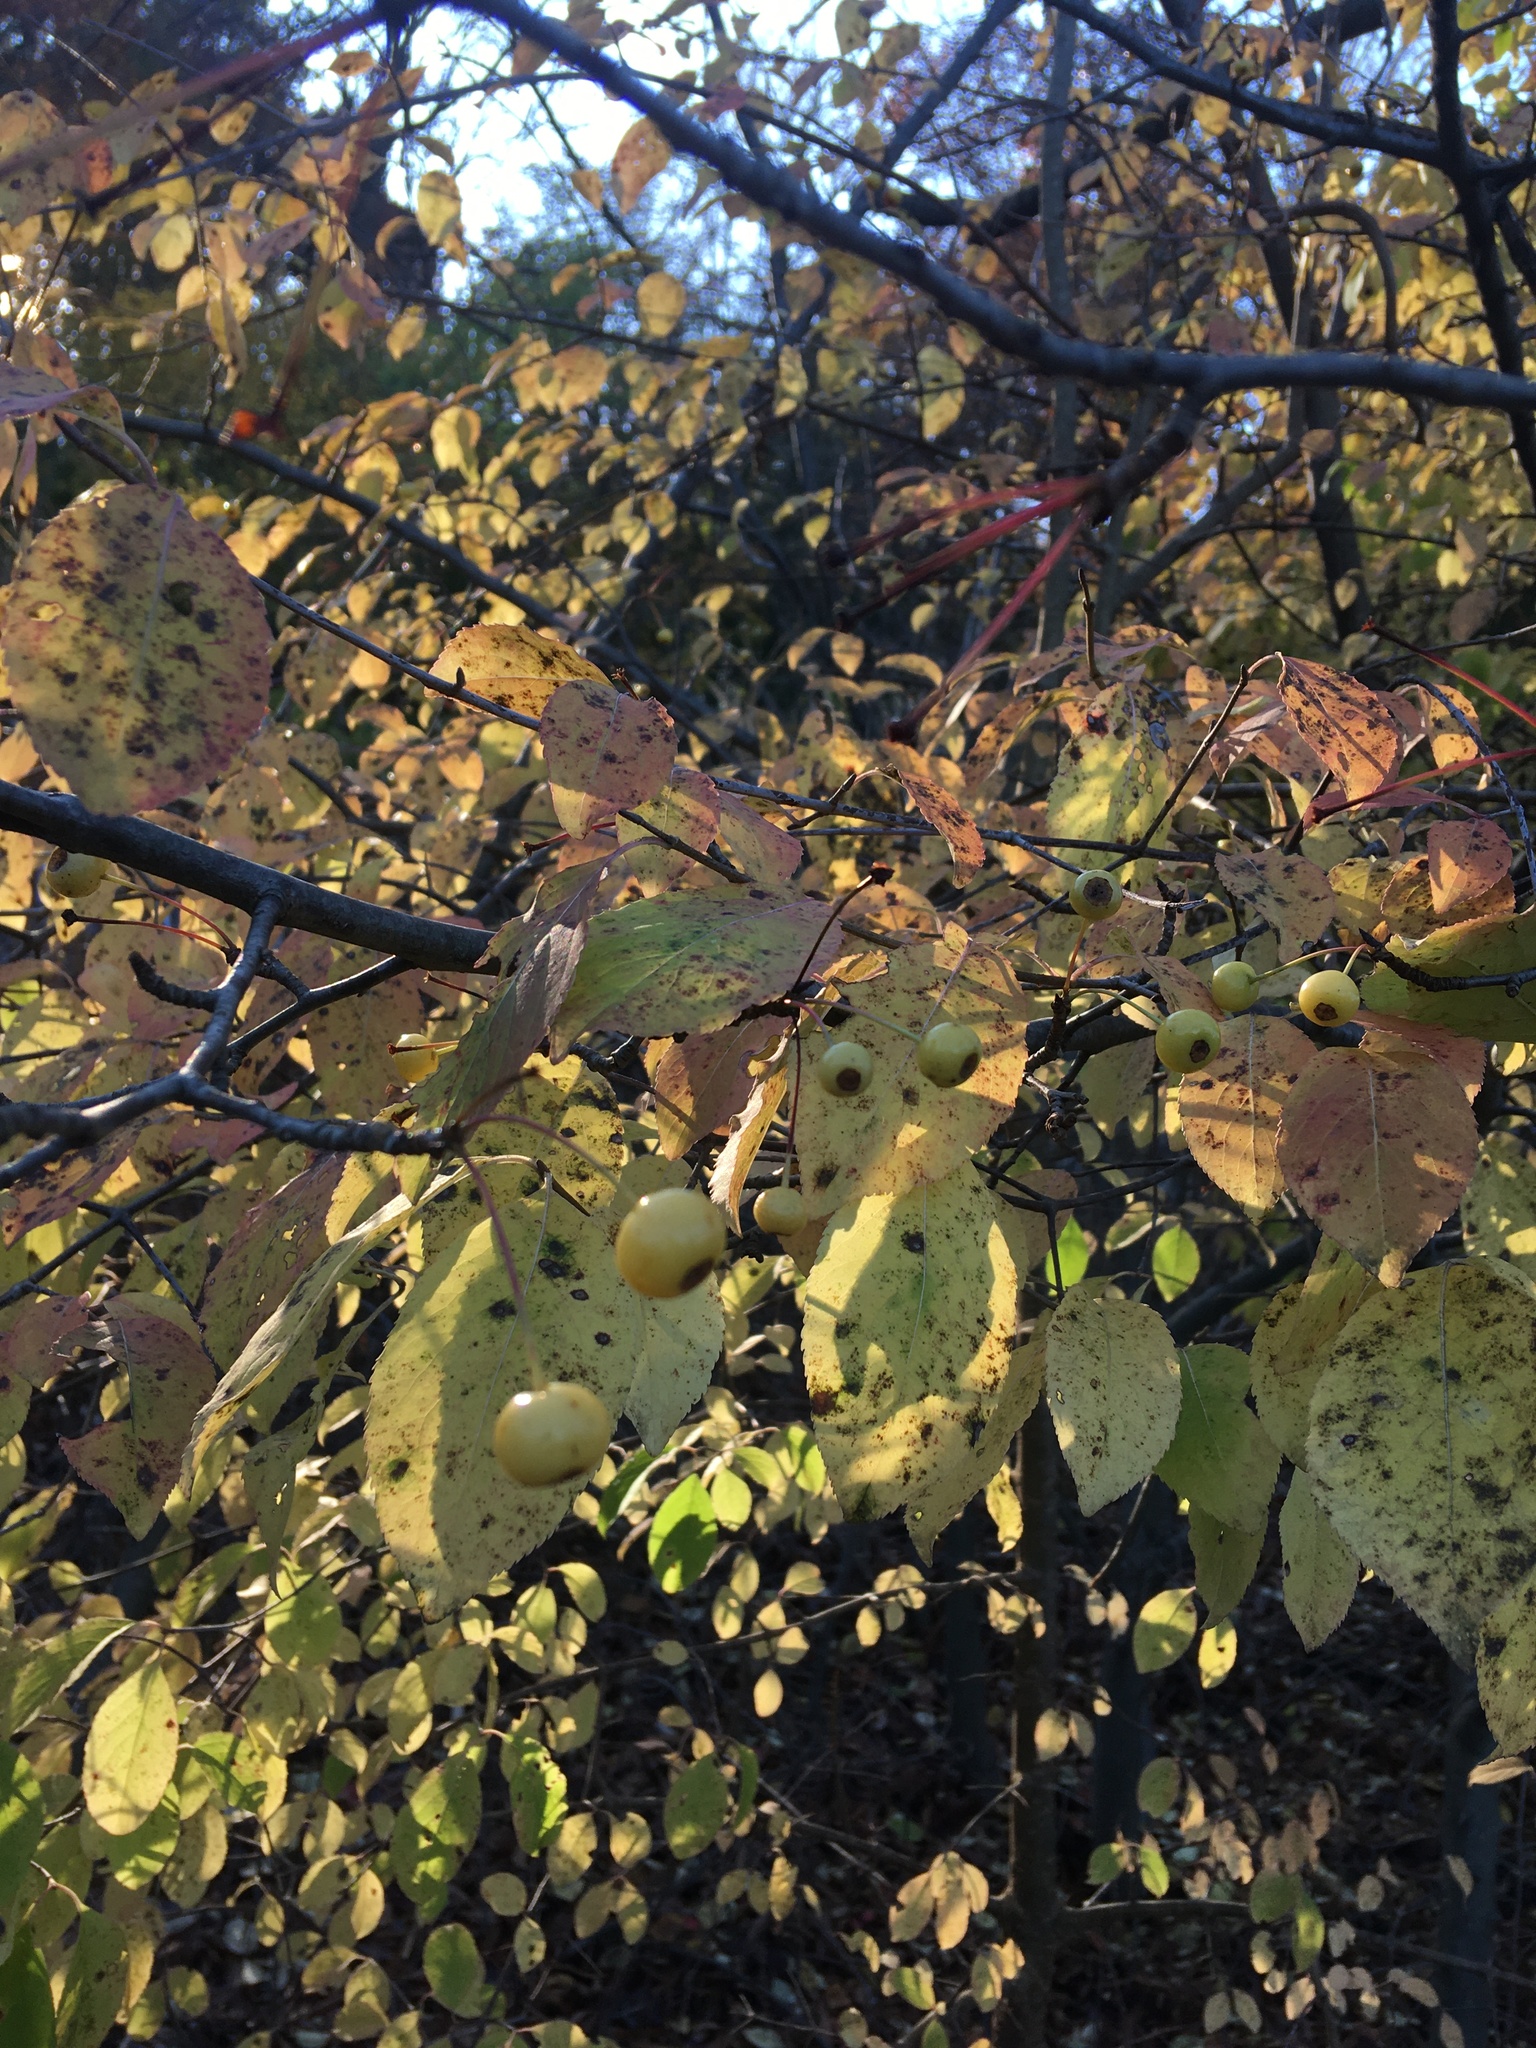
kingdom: Plantae
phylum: Tracheophyta
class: Magnoliopsida
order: Rosales
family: Rosaceae
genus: Malus
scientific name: Malus hupehensis
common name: Chinese crab apple
